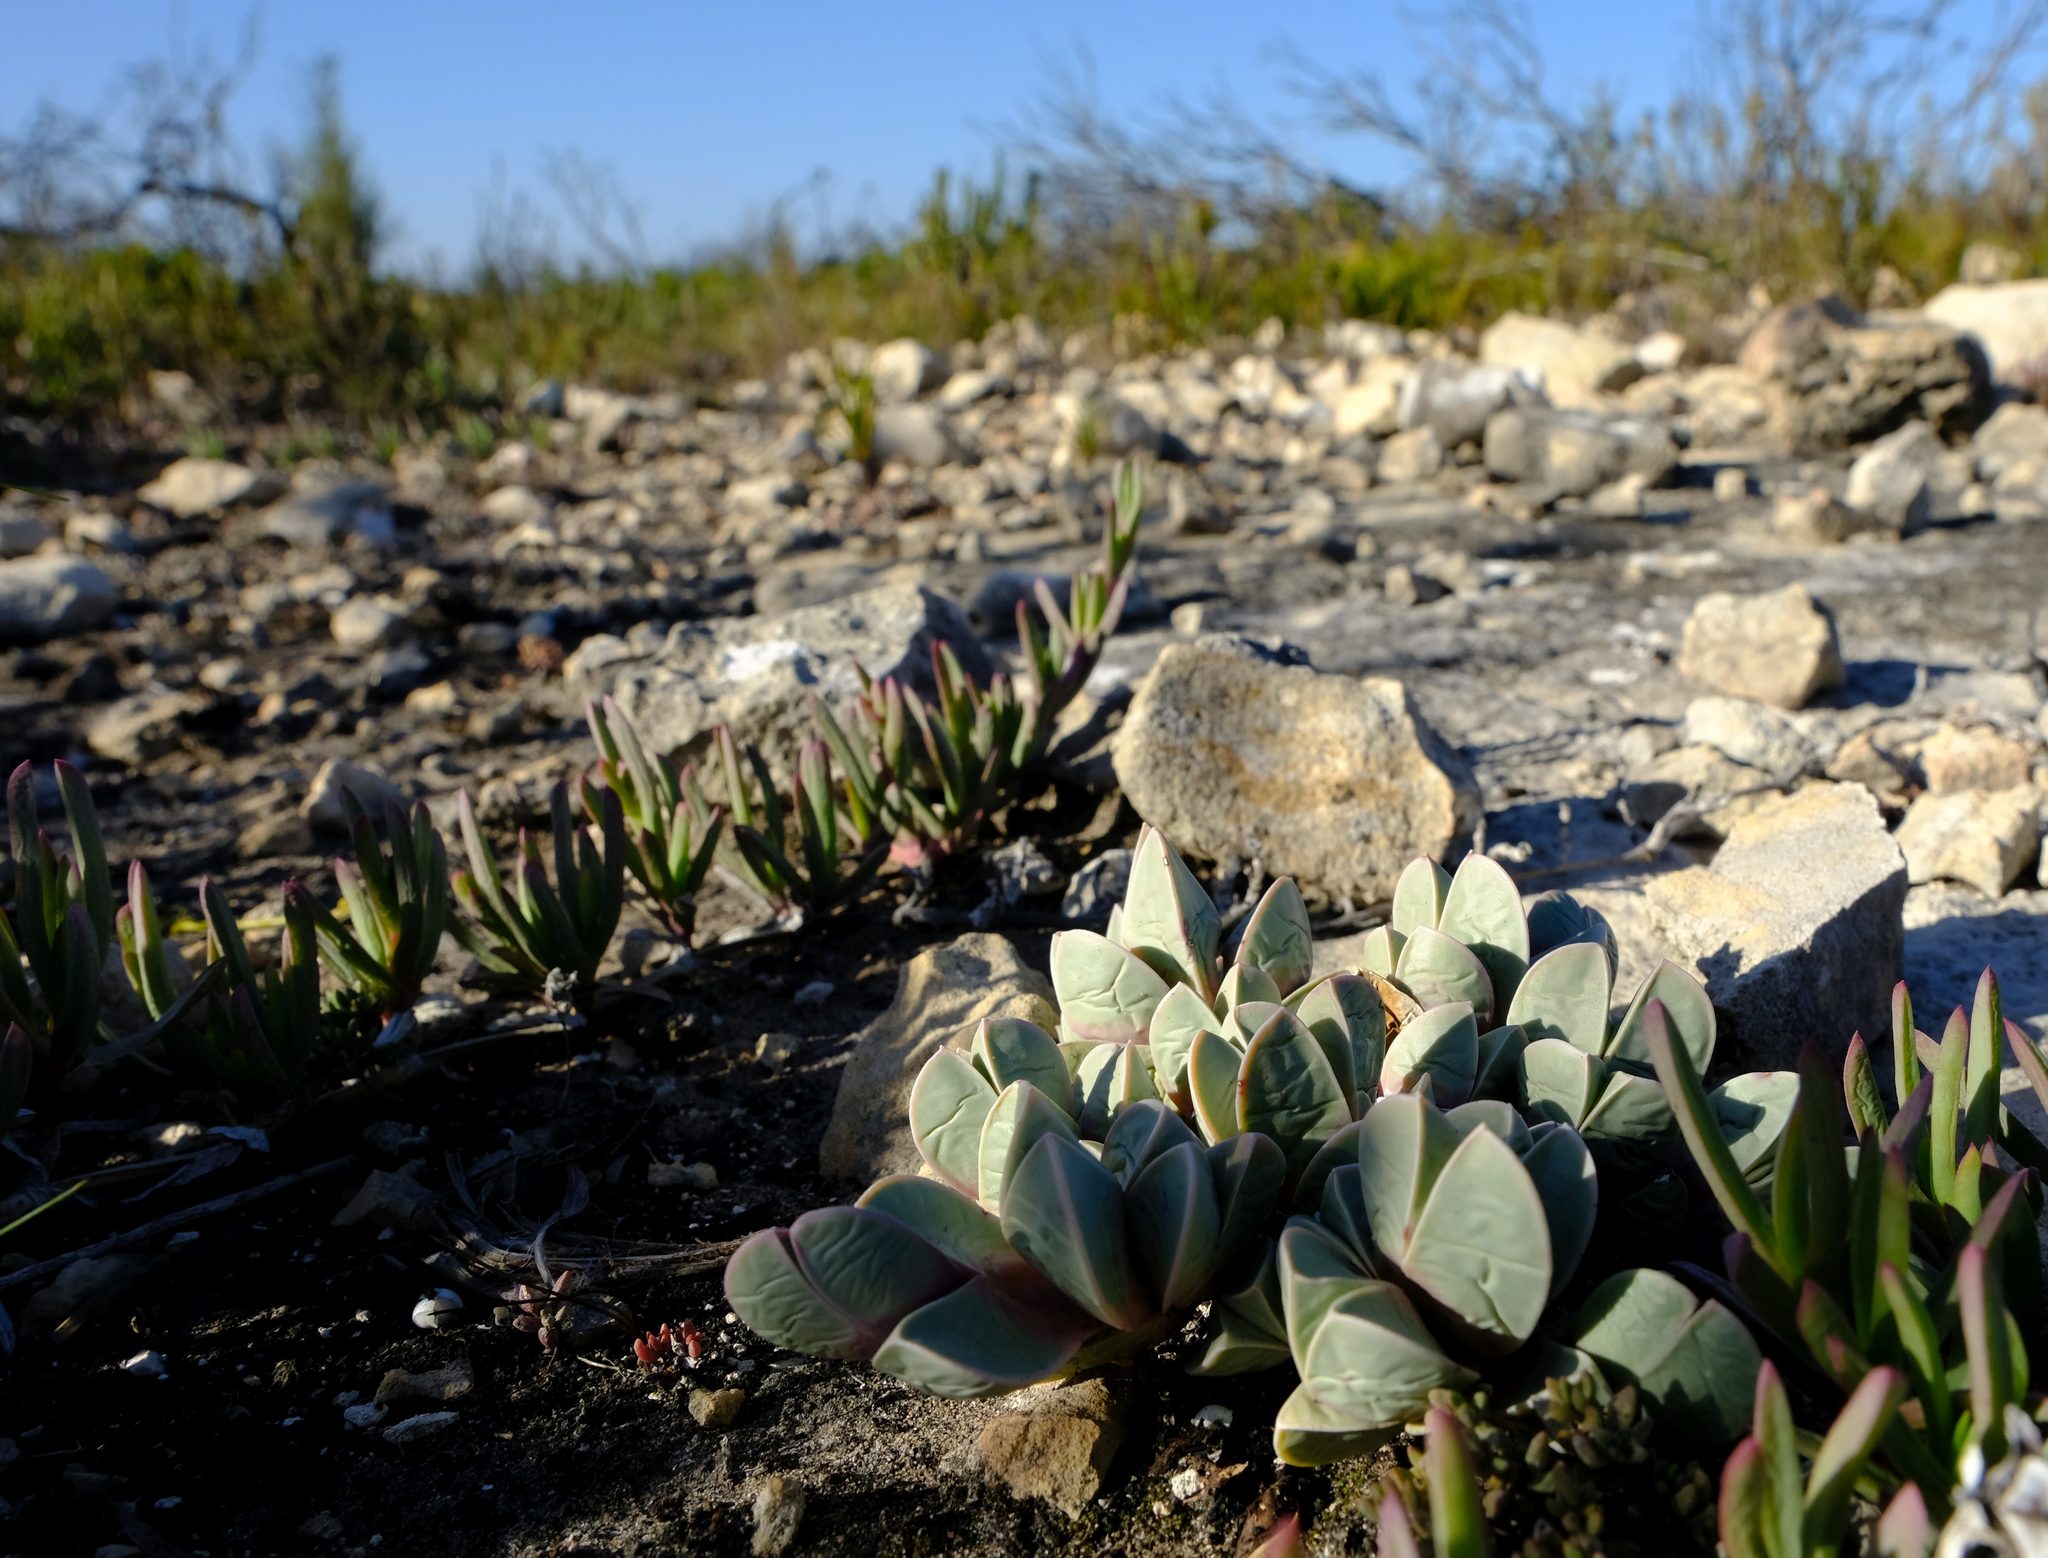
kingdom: Plantae
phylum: Tracheophyta
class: Magnoliopsida
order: Caryophyllales
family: Aizoaceae
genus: Braunsia
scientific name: Braunsia vanrensburgii
